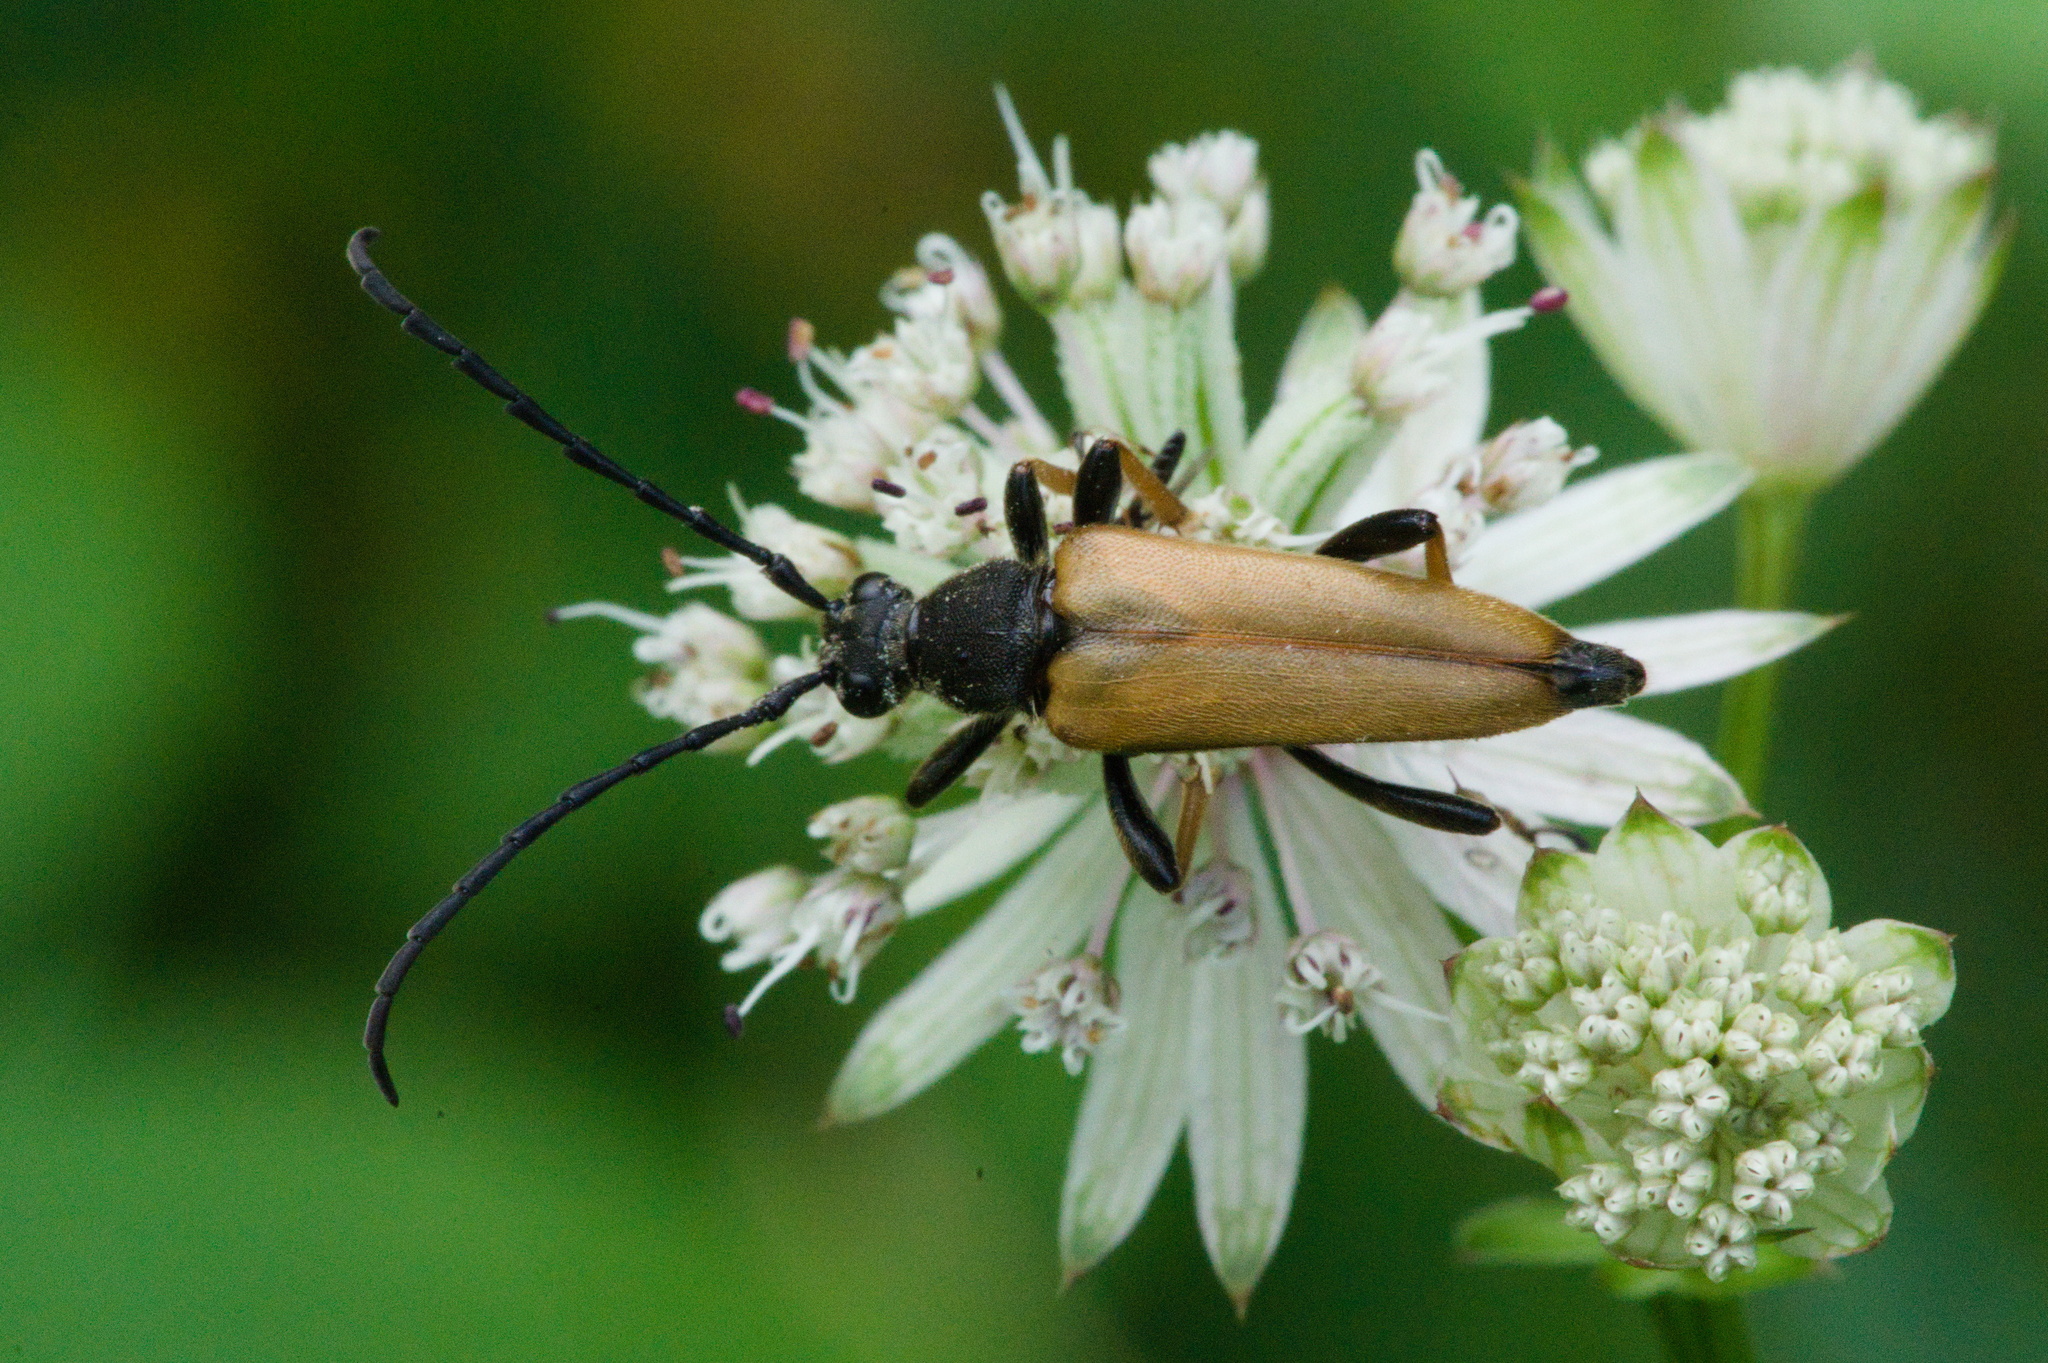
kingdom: Animalia
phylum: Arthropoda
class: Insecta
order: Coleoptera
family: Cerambycidae
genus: Stictoleptura
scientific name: Stictoleptura rubra
